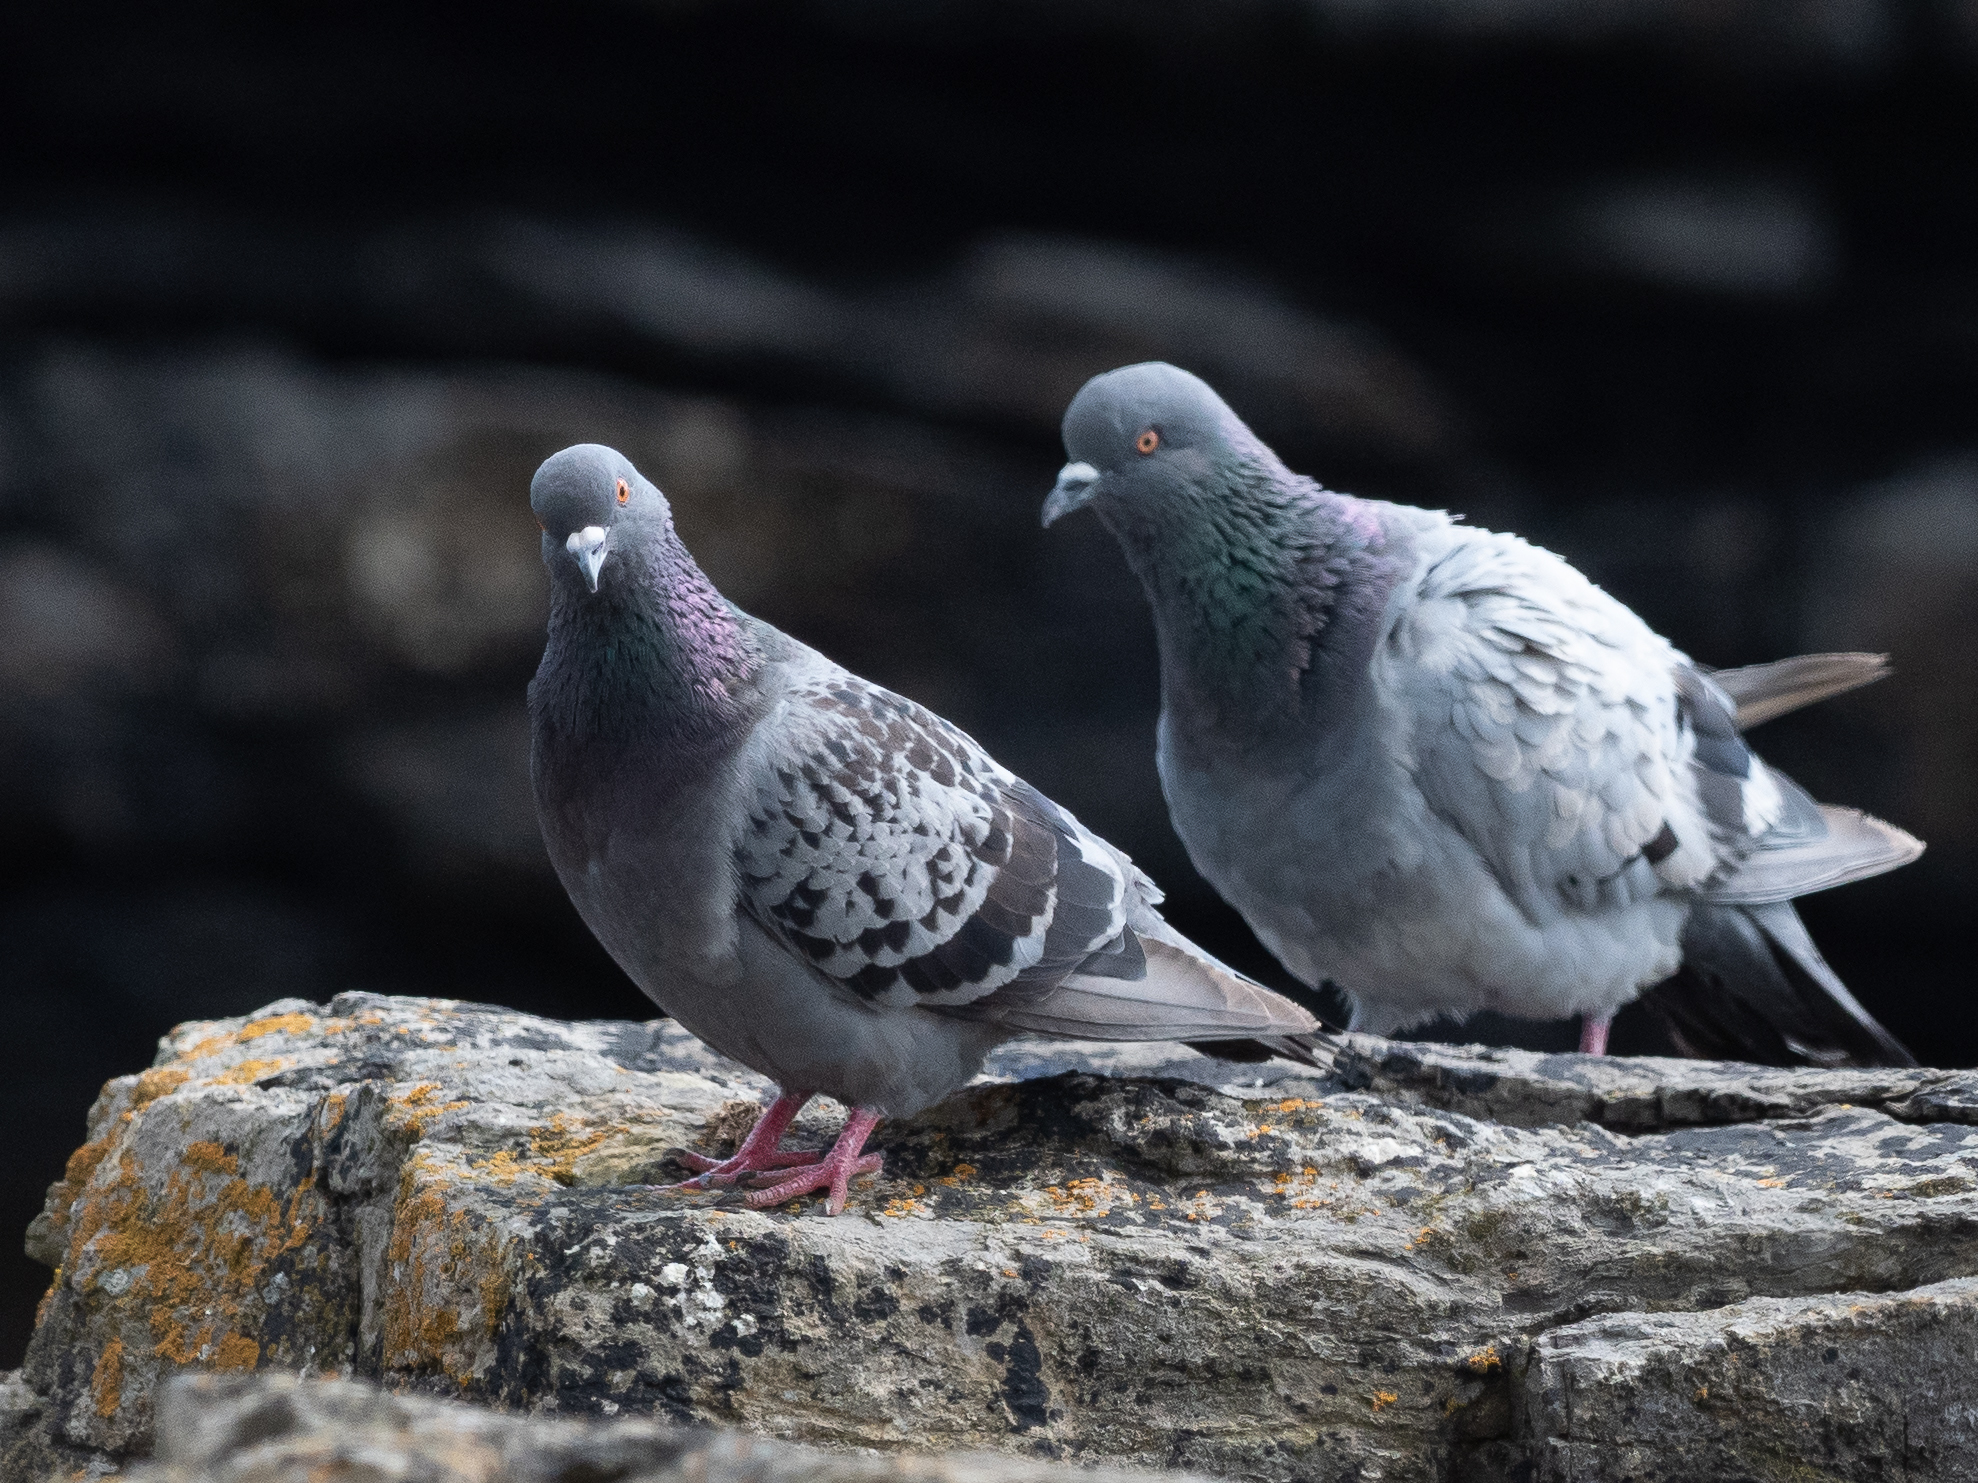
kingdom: Animalia
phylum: Chordata
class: Aves
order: Columbiformes
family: Columbidae
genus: Columba
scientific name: Columba livia
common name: Rock pigeon
